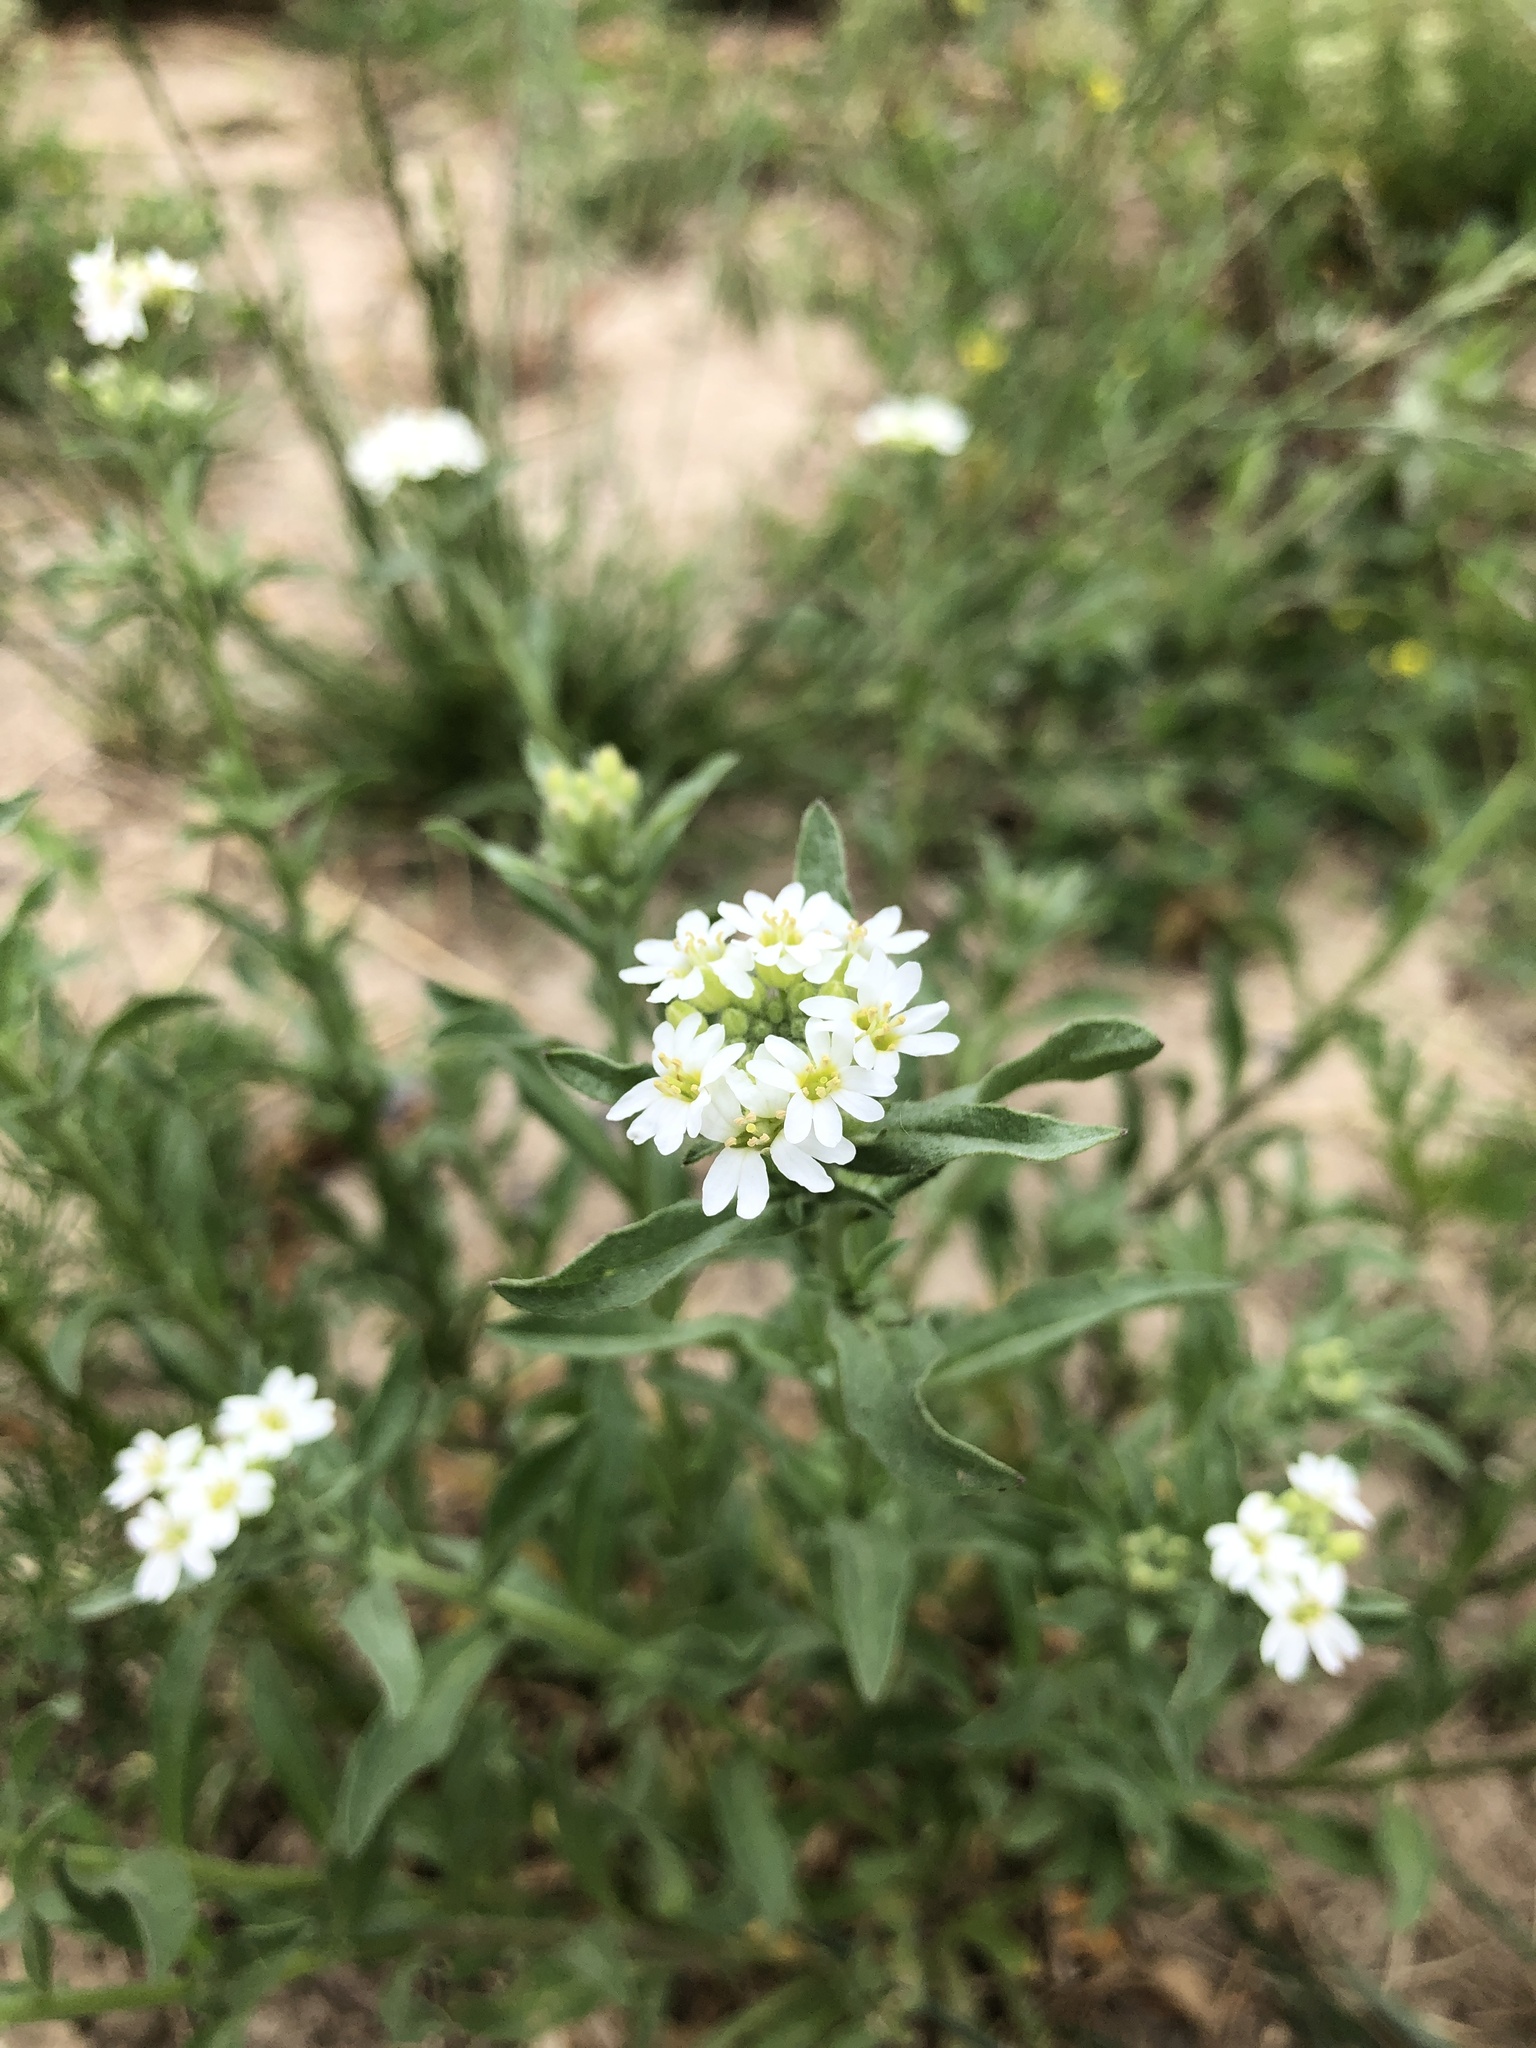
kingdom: Plantae
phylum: Tracheophyta
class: Magnoliopsida
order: Brassicales
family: Brassicaceae
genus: Berteroa
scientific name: Berteroa incana
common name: Hoary alison
